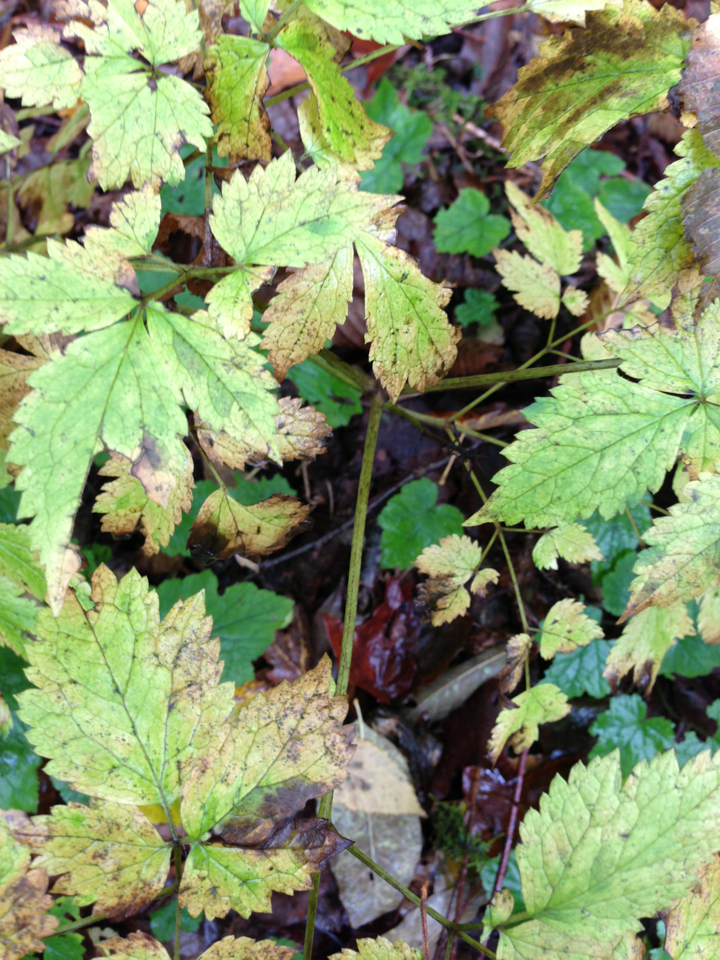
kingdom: Plantae
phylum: Tracheophyta
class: Magnoliopsida
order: Ranunculales
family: Ranunculaceae
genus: Actaea
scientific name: Actaea rubra
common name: Red baneberry
